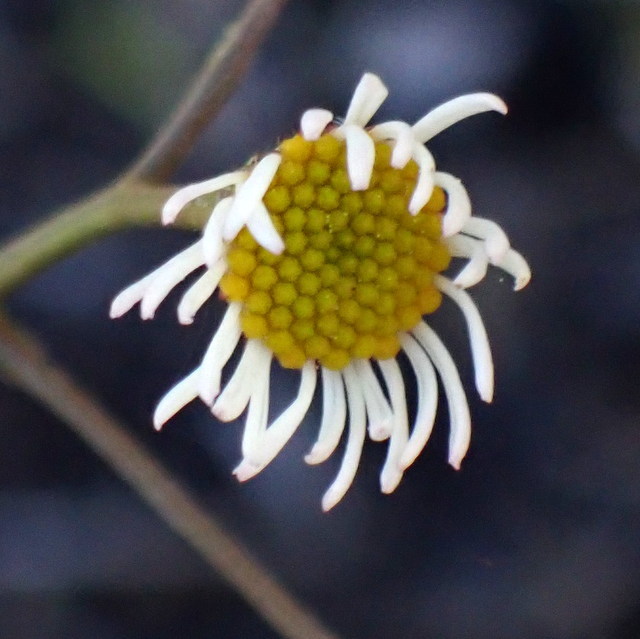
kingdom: Plantae
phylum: Tracheophyta
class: Magnoliopsida
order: Asterales
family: Asteraceae
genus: Erigeron
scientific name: Erigeron vernus
